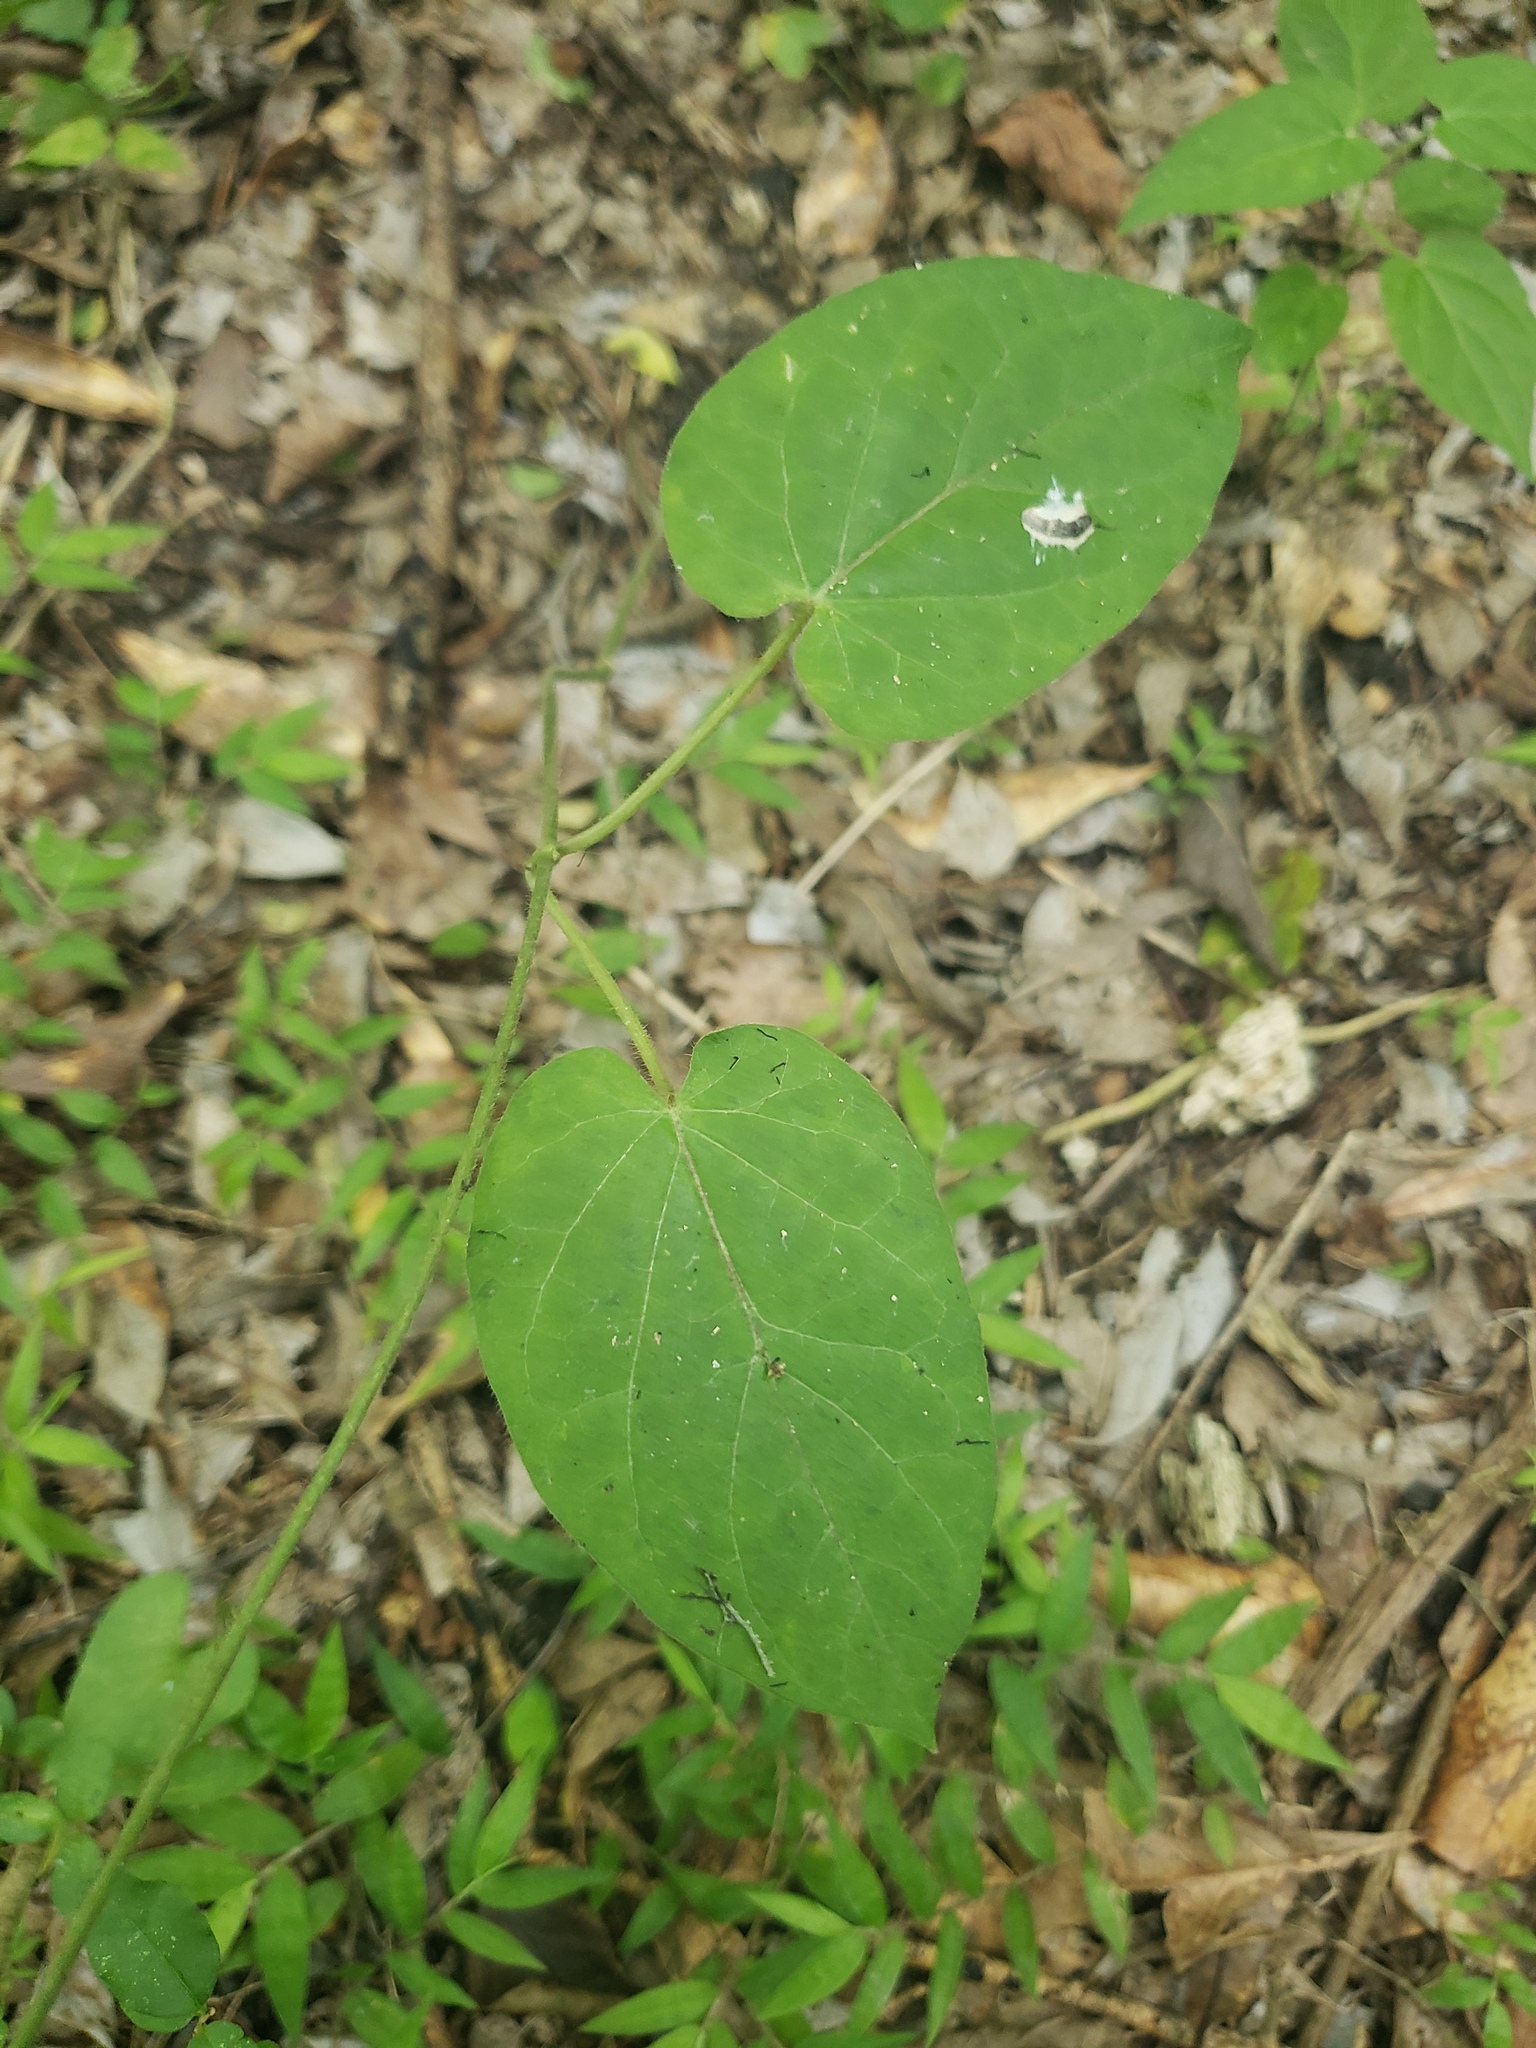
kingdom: Plantae
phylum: Tracheophyta
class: Magnoliopsida
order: Gentianales
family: Apocynaceae
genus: Gonolobus
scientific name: Gonolobus suberosus
